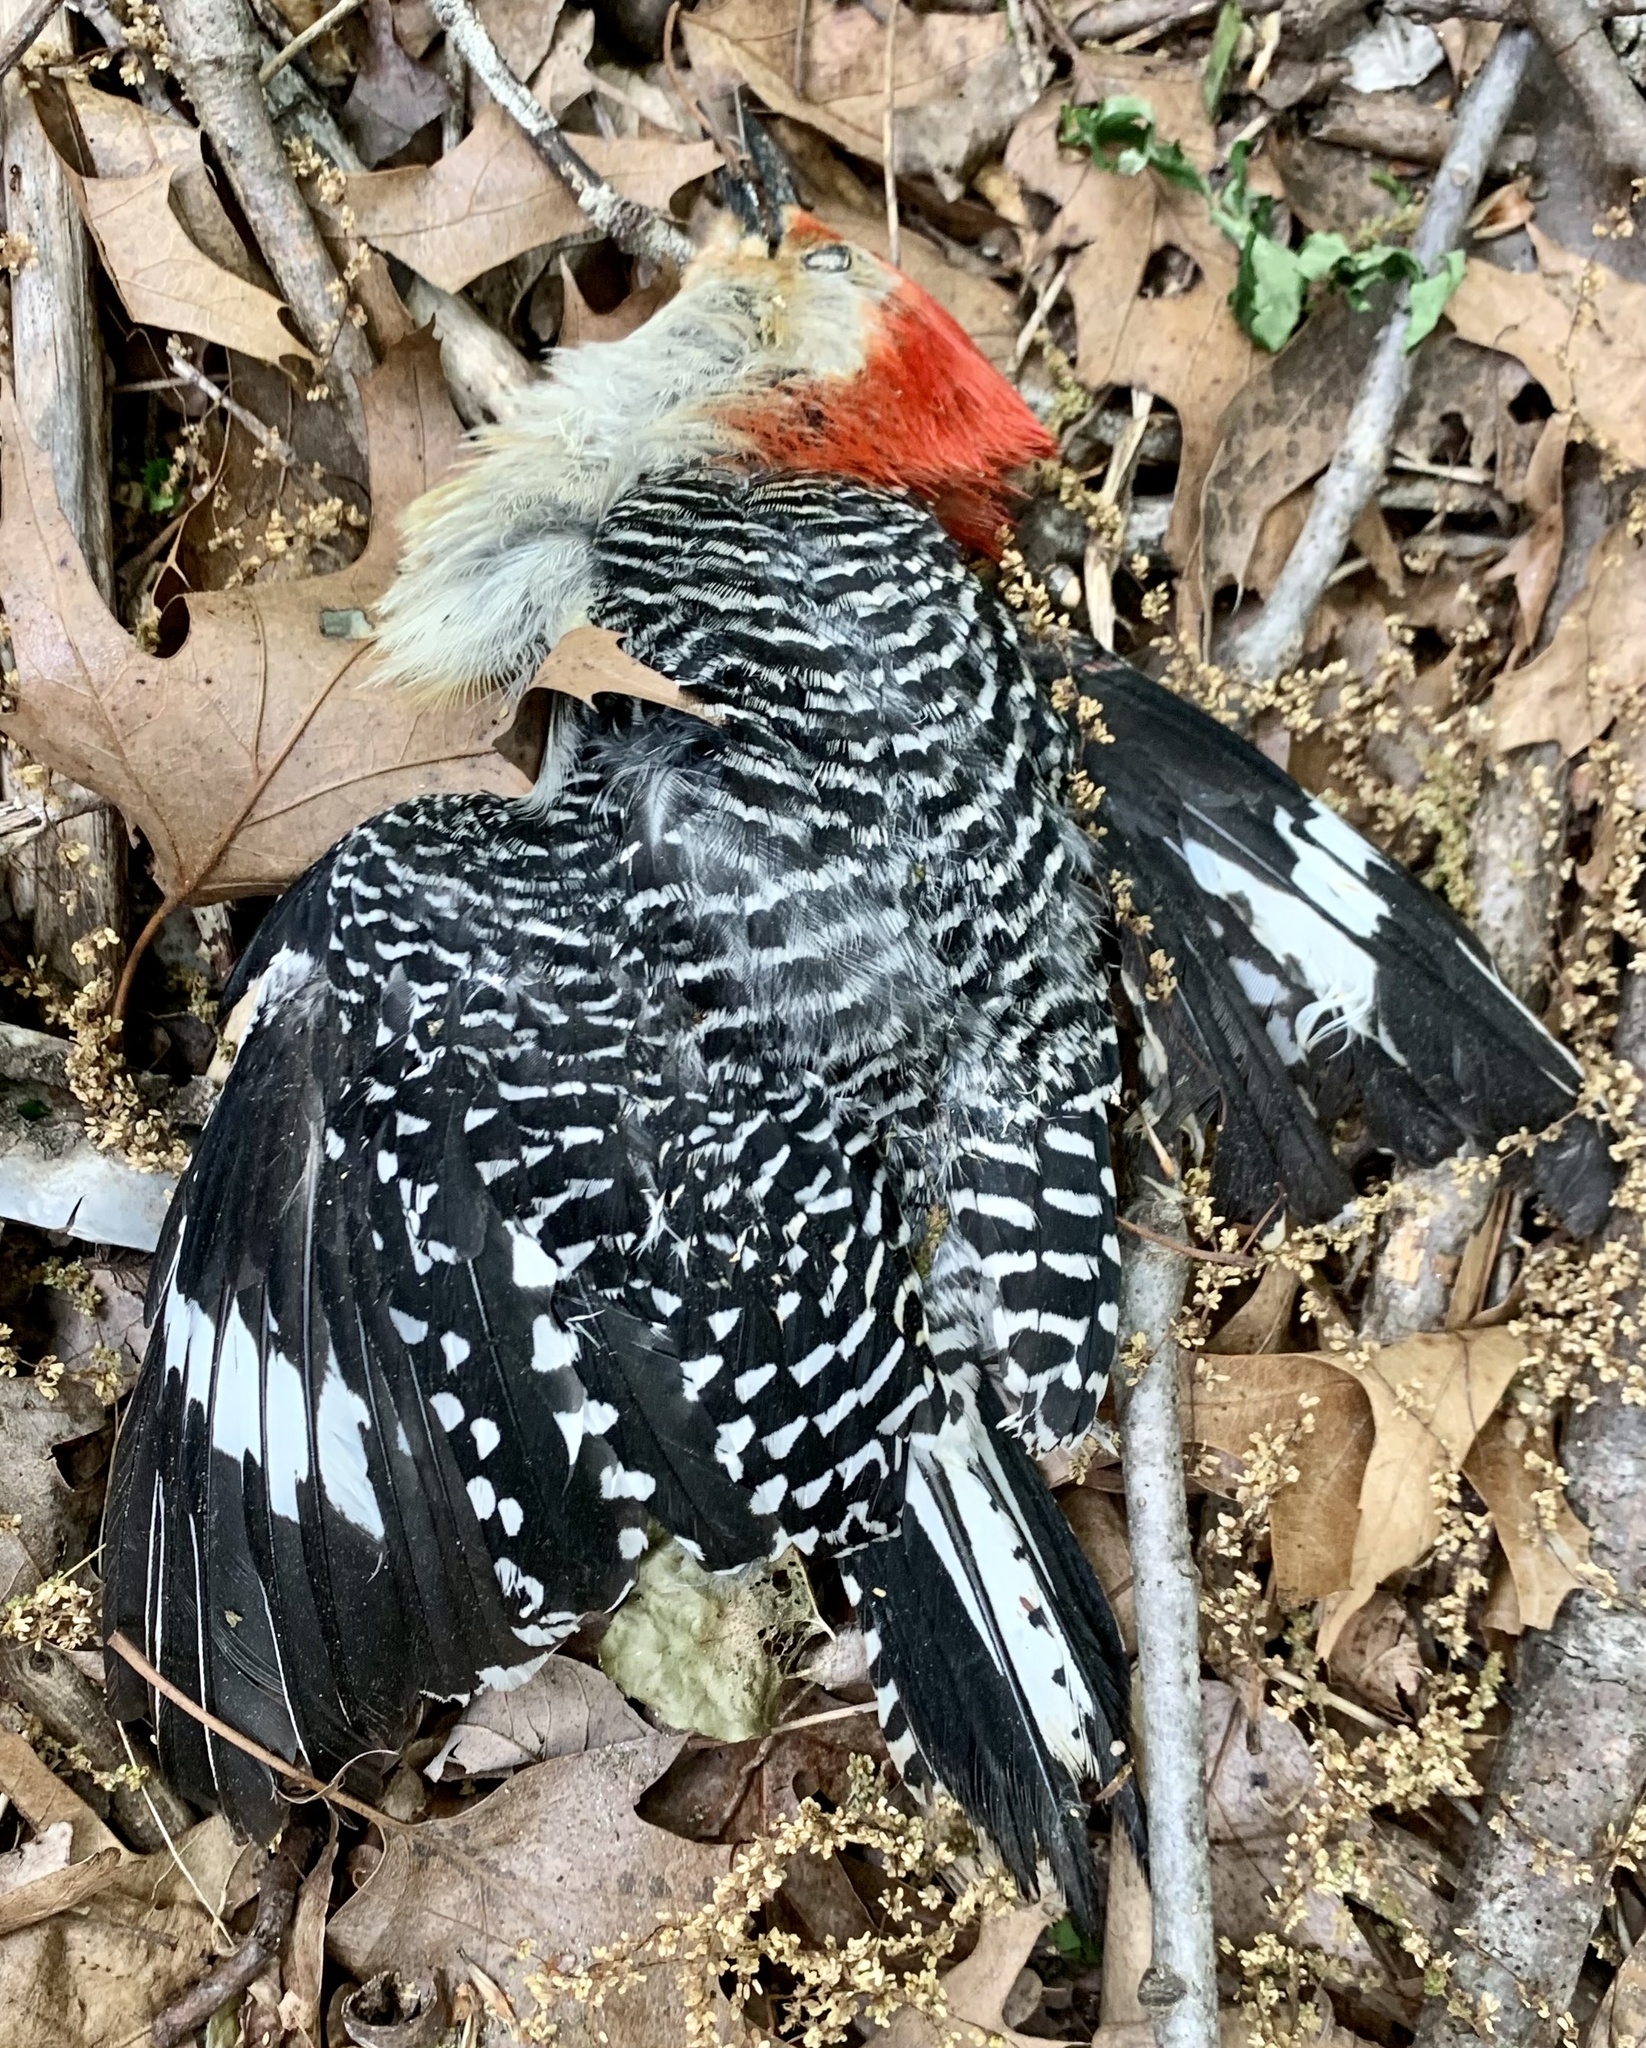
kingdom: Animalia
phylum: Chordata
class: Aves
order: Piciformes
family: Picidae
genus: Melanerpes
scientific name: Melanerpes carolinus
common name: Red-bellied woodpecker
